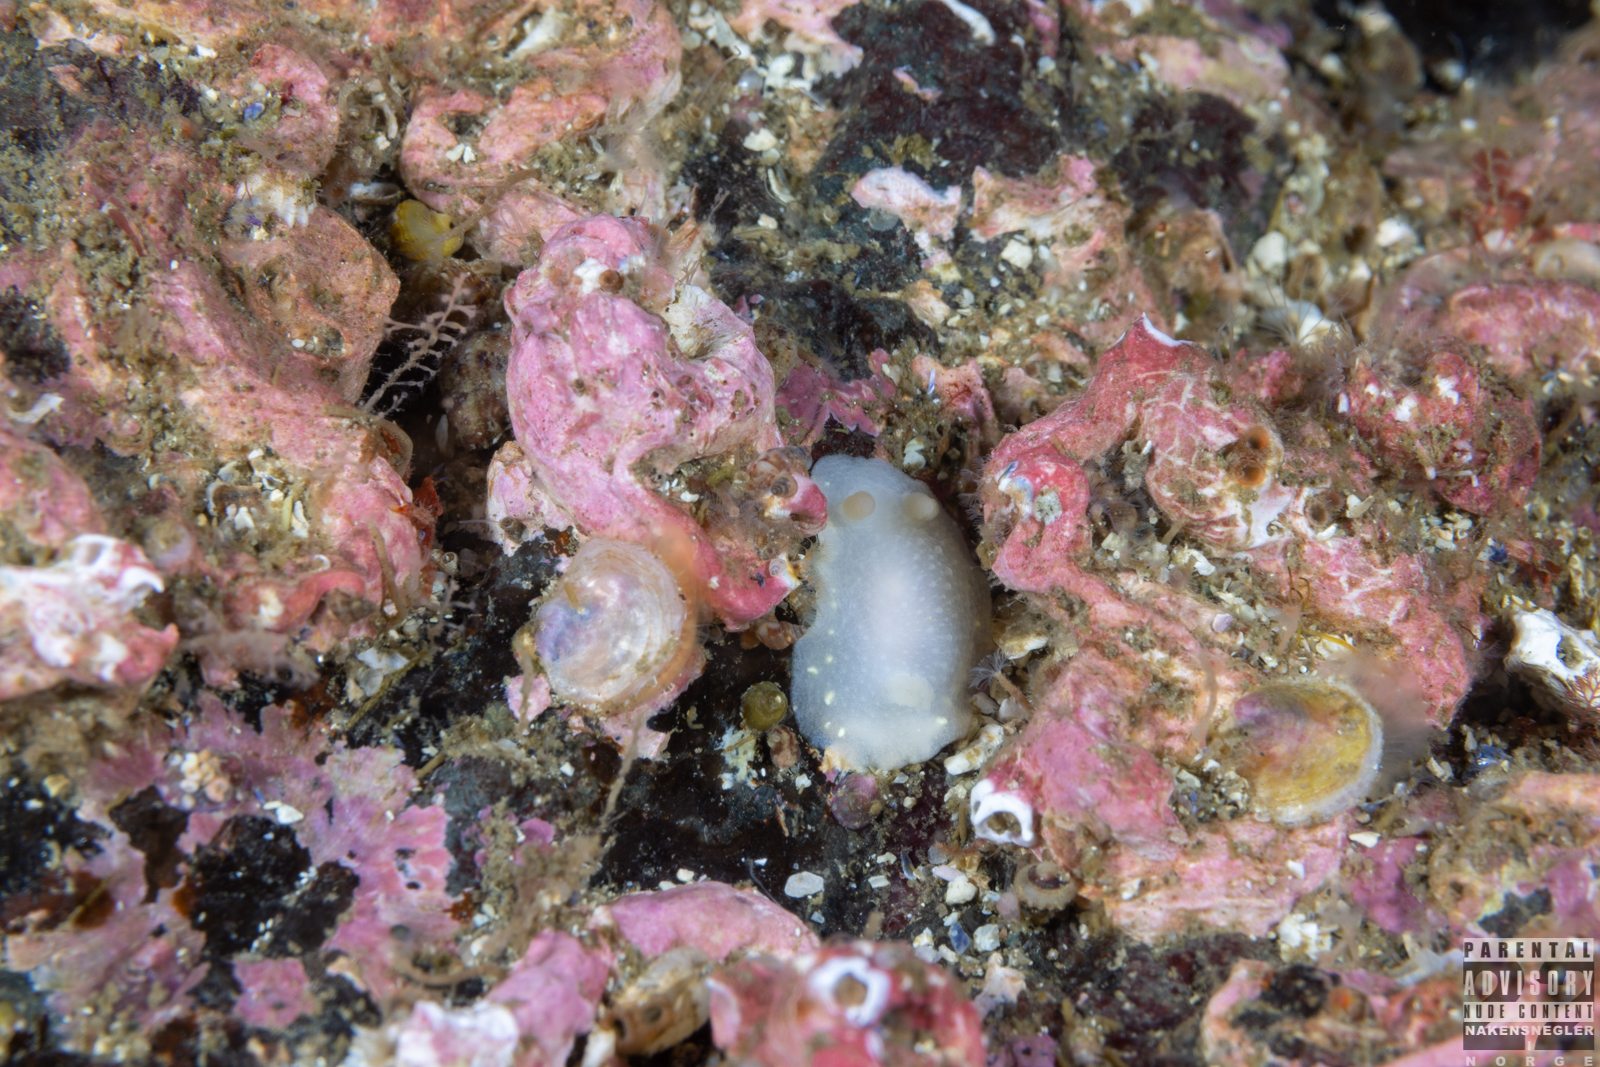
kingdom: Animalia
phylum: Mollusca
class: Gastropoda
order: Nudibranchia
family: Cadlinidae
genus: Cadlina
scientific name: Cadlina laevis
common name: White atlantic cadlina
